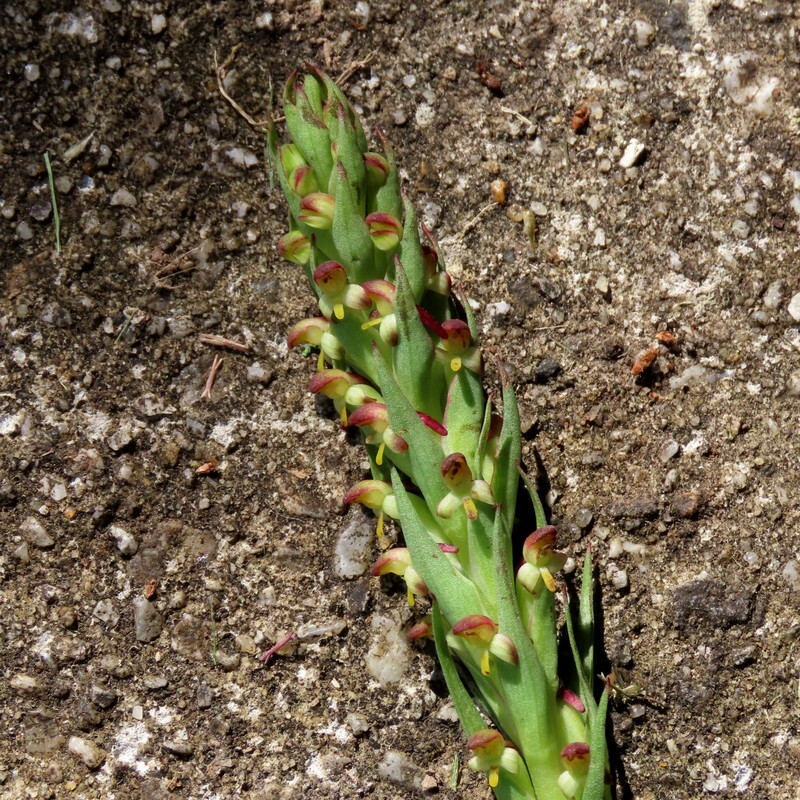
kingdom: Plantae
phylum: Tracheophyta
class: Liliopsida
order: Asparagales
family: Orchidaceae
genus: Disa
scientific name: Disa bracteata
